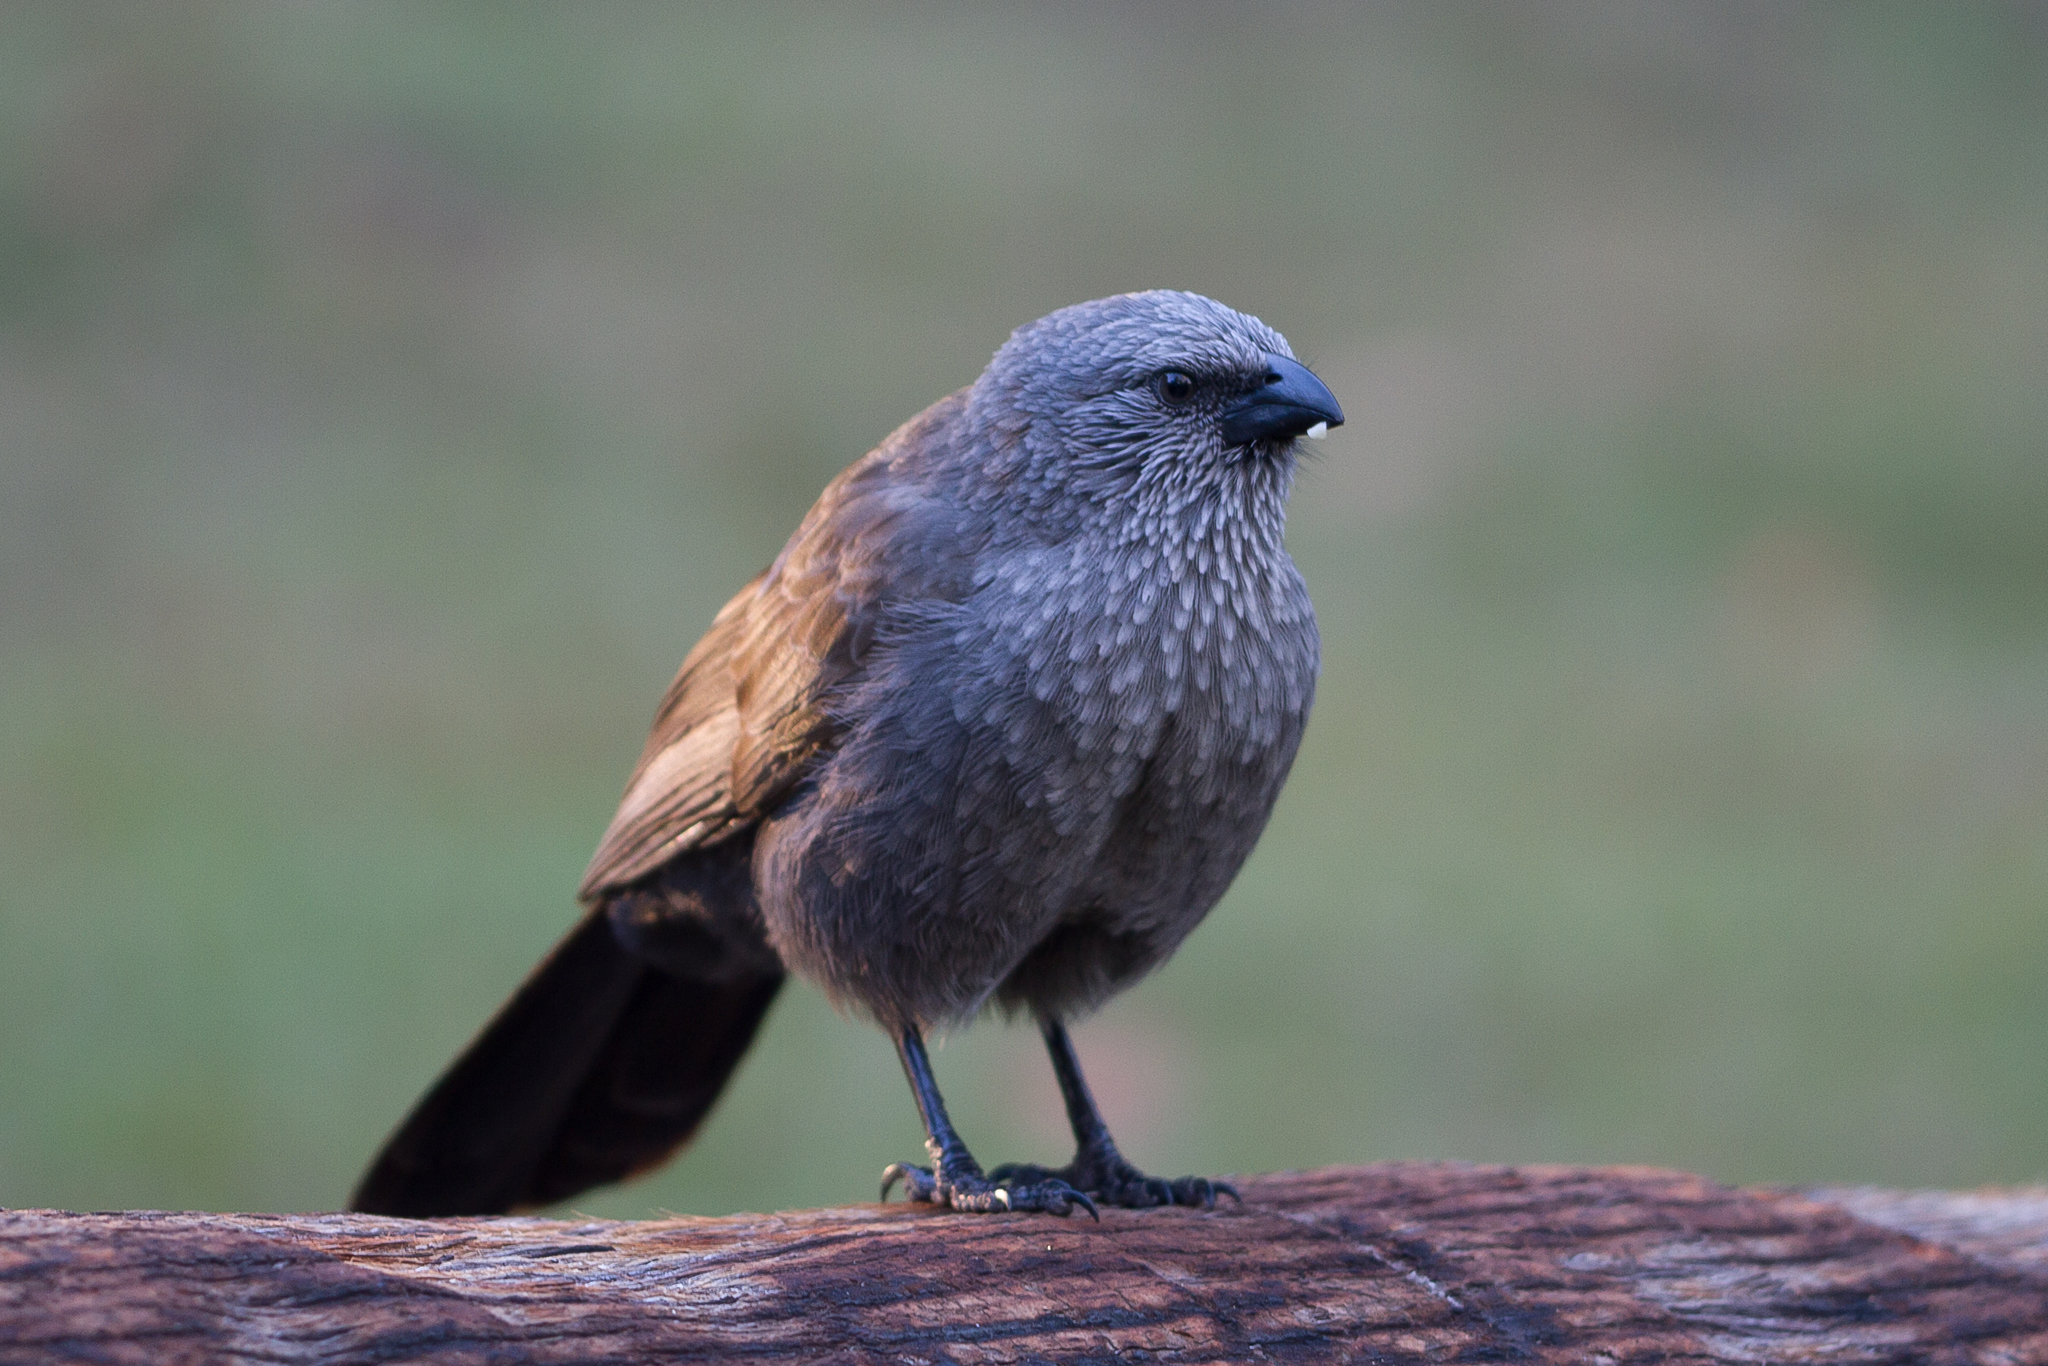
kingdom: Animalia
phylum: Chordata
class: Aves
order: Passeriformes
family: Corcoracidae
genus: Struthidea
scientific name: Struthidea cinerea
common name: Apostlebird
